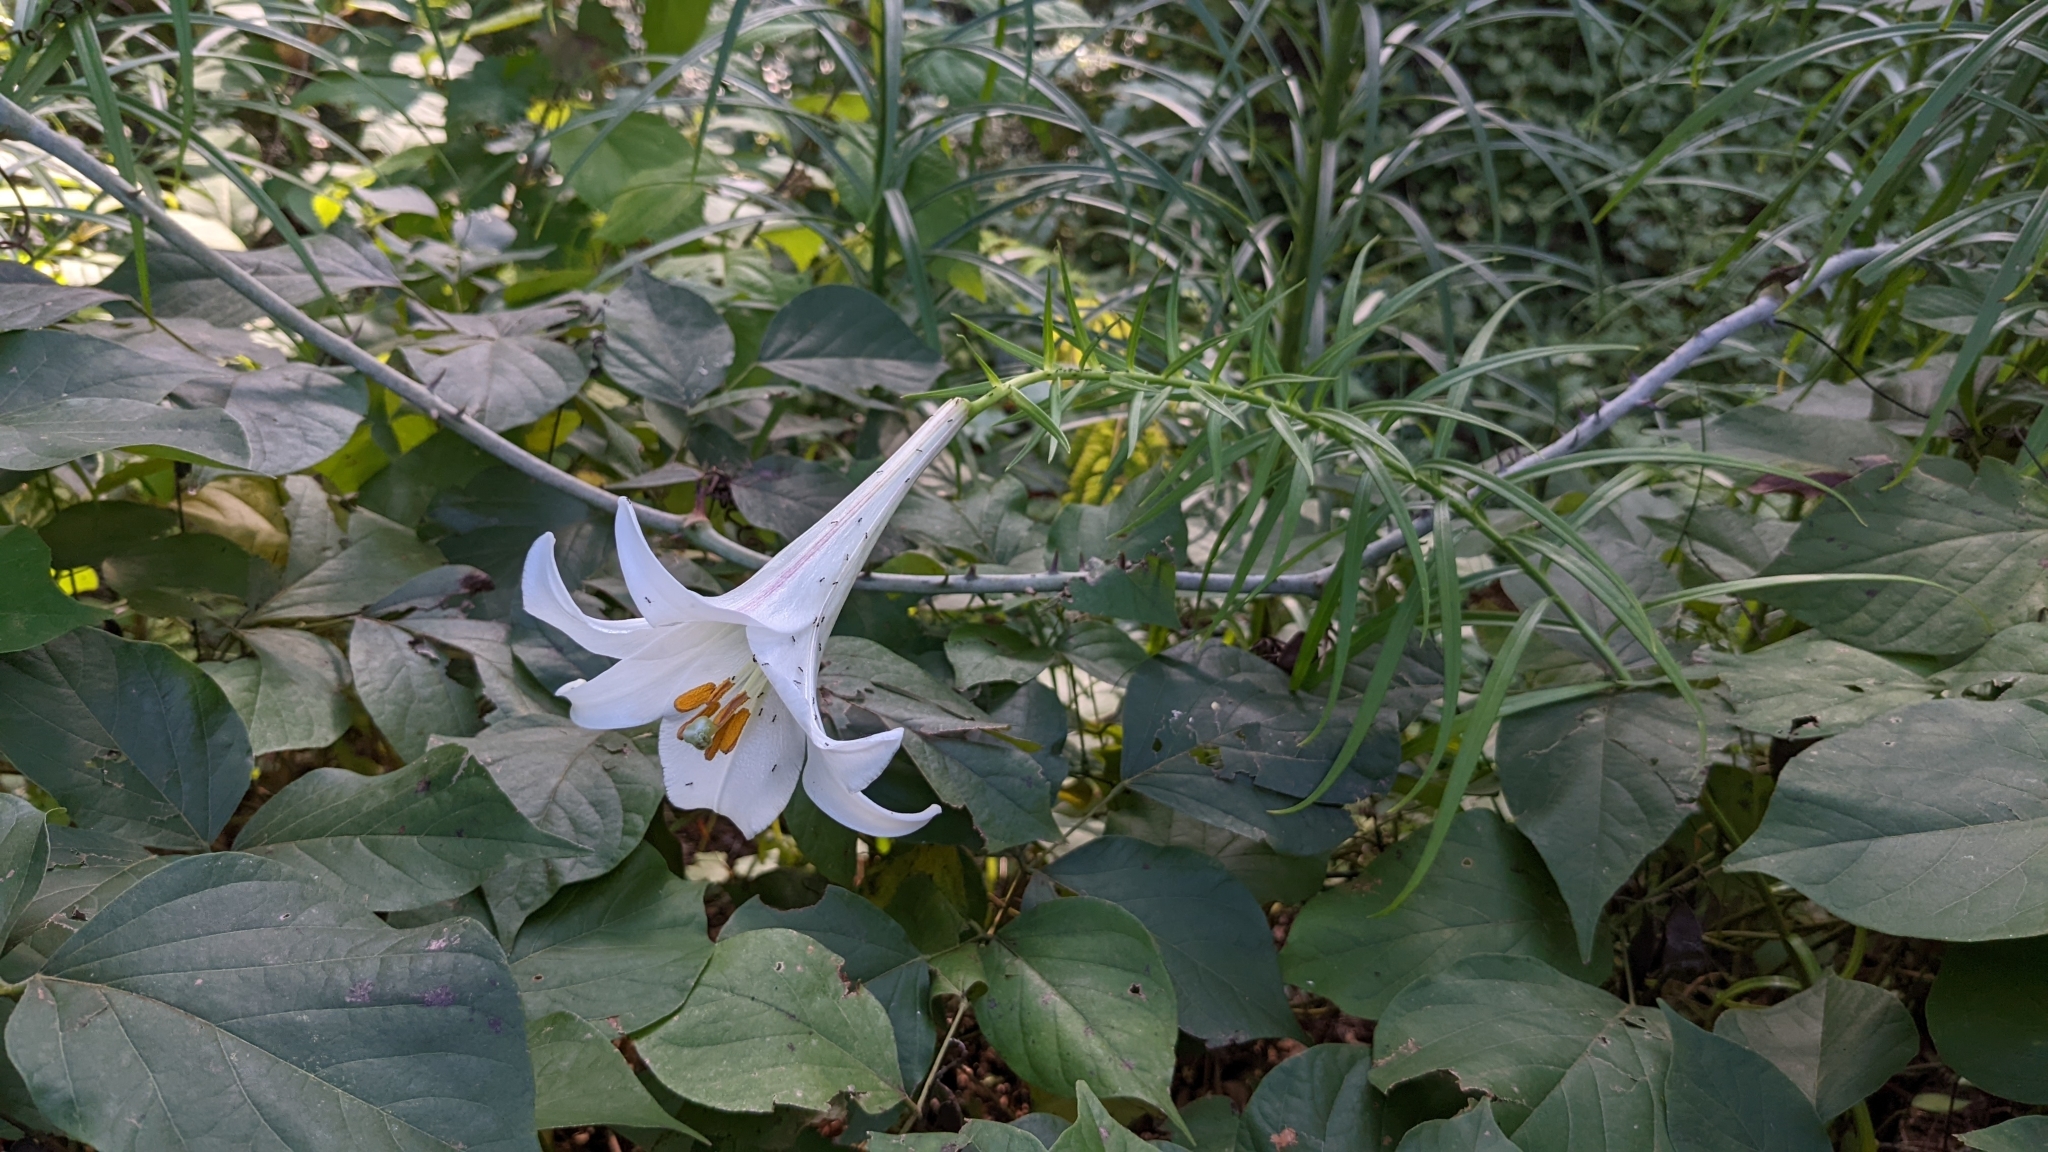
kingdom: Plantae
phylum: Tracheophyta
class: Liliopsida
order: Liliales
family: Liliaceae
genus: Lilium
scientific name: Lilium formosanum
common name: Formosa lily
